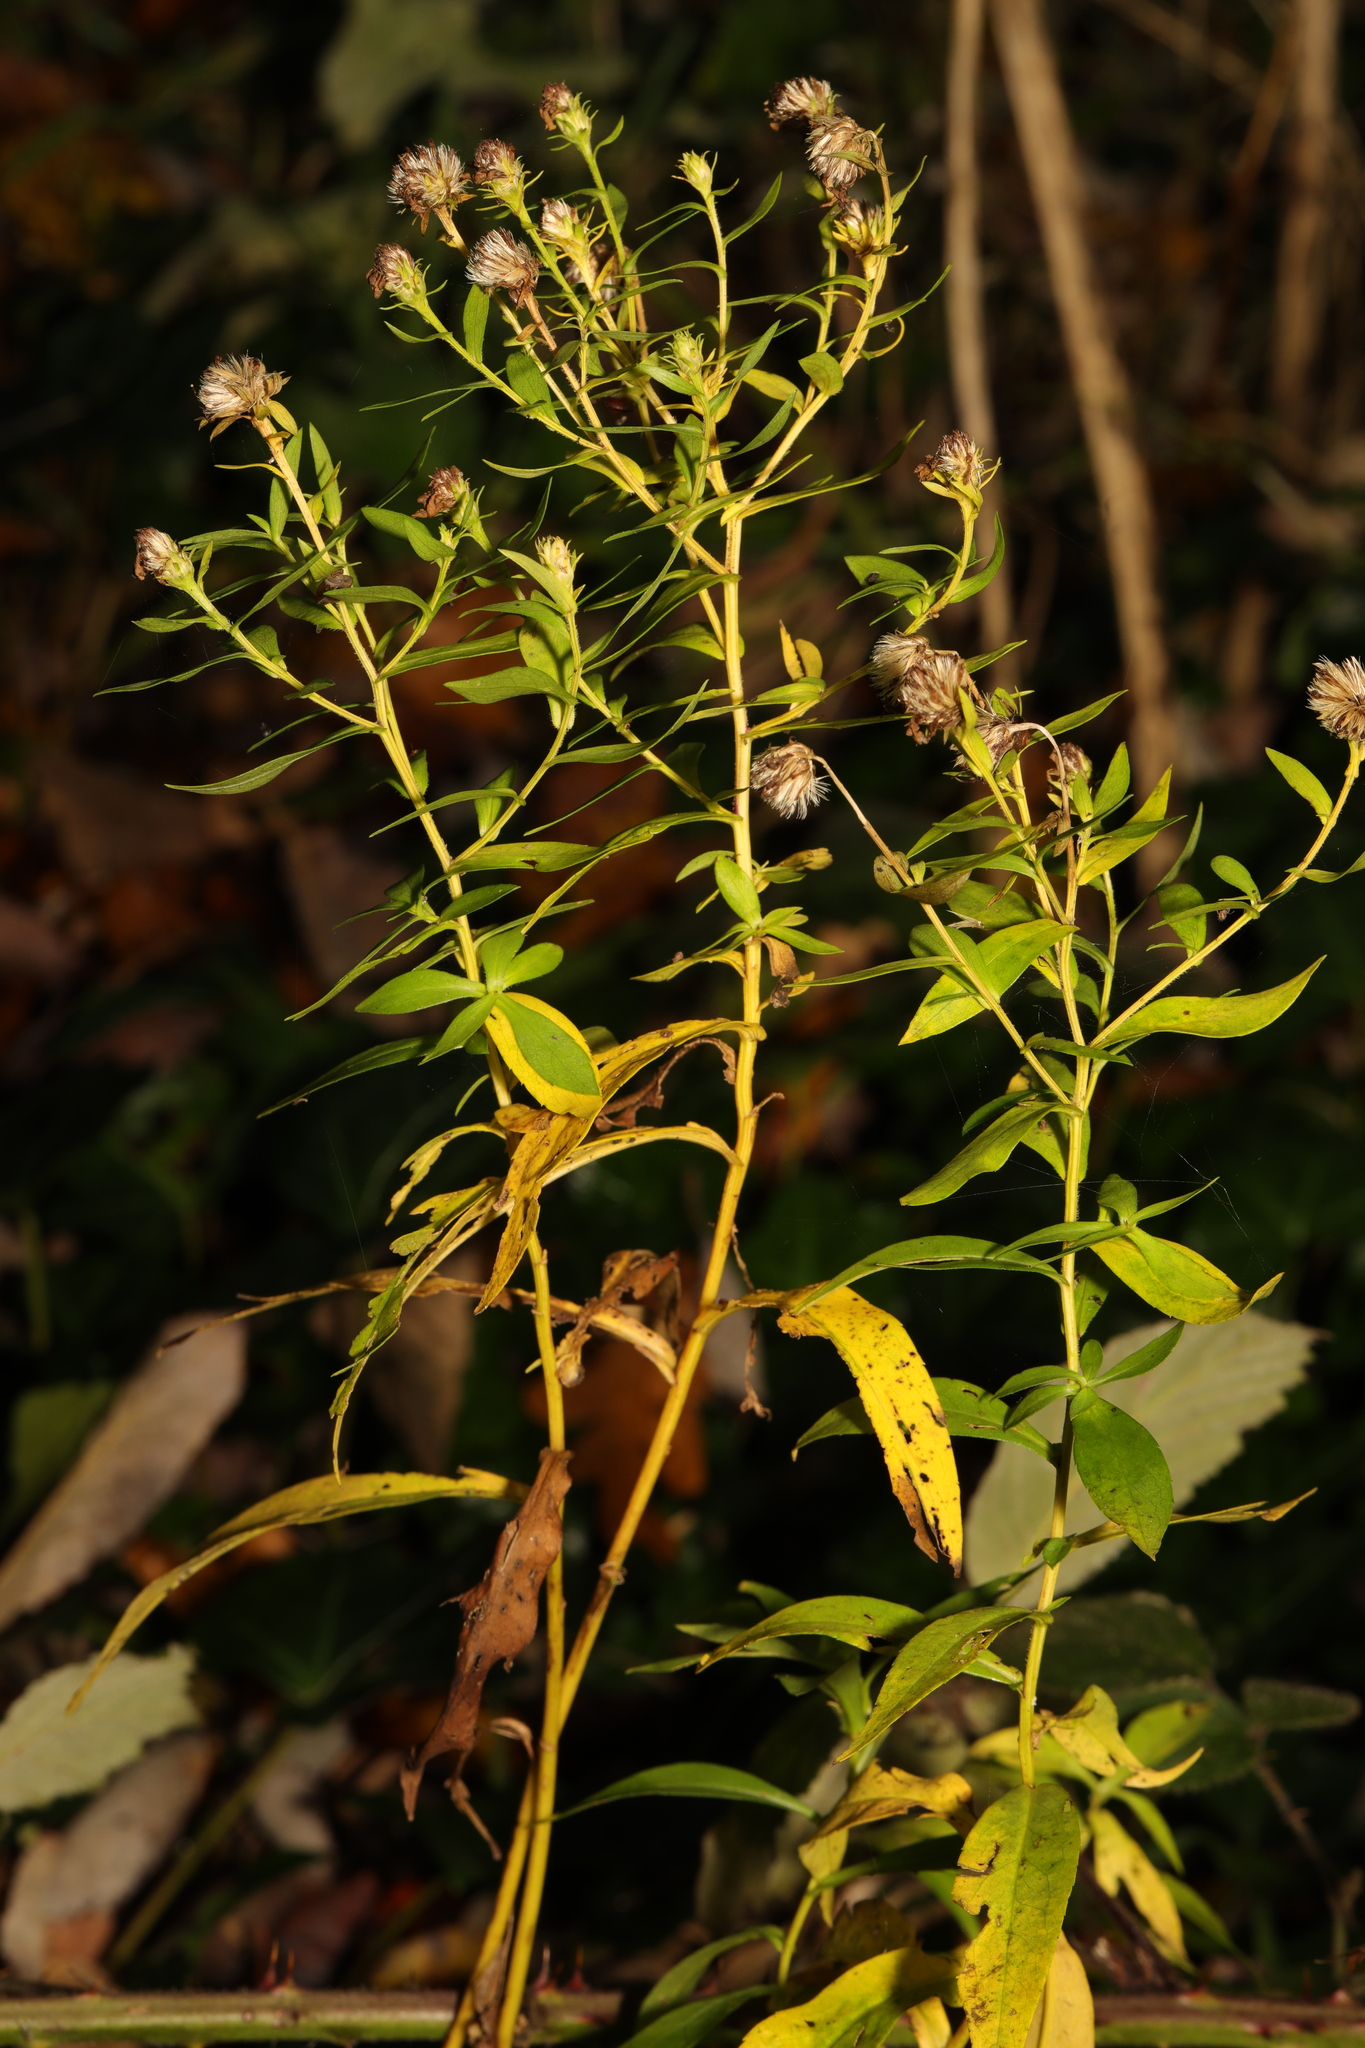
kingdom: Plantae
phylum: Tracheophyta
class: Magnoliopsida
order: Asterales
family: Asteraceae
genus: Symphyotrichum
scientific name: Symphyotrichum
